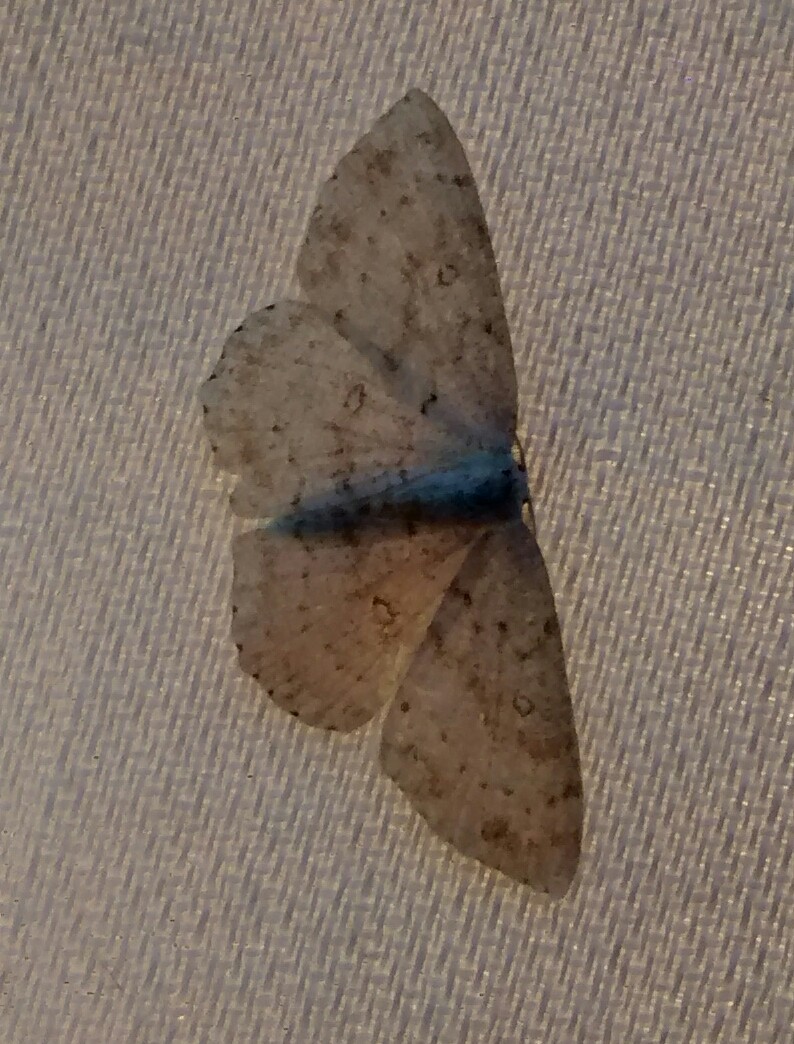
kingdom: Animalia
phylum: Arthropoda
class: Insecta
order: Lepidoptera
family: Geometridae
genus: Cyclophora
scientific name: Cyclophora pendulinaria
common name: Sweet fern geometer
